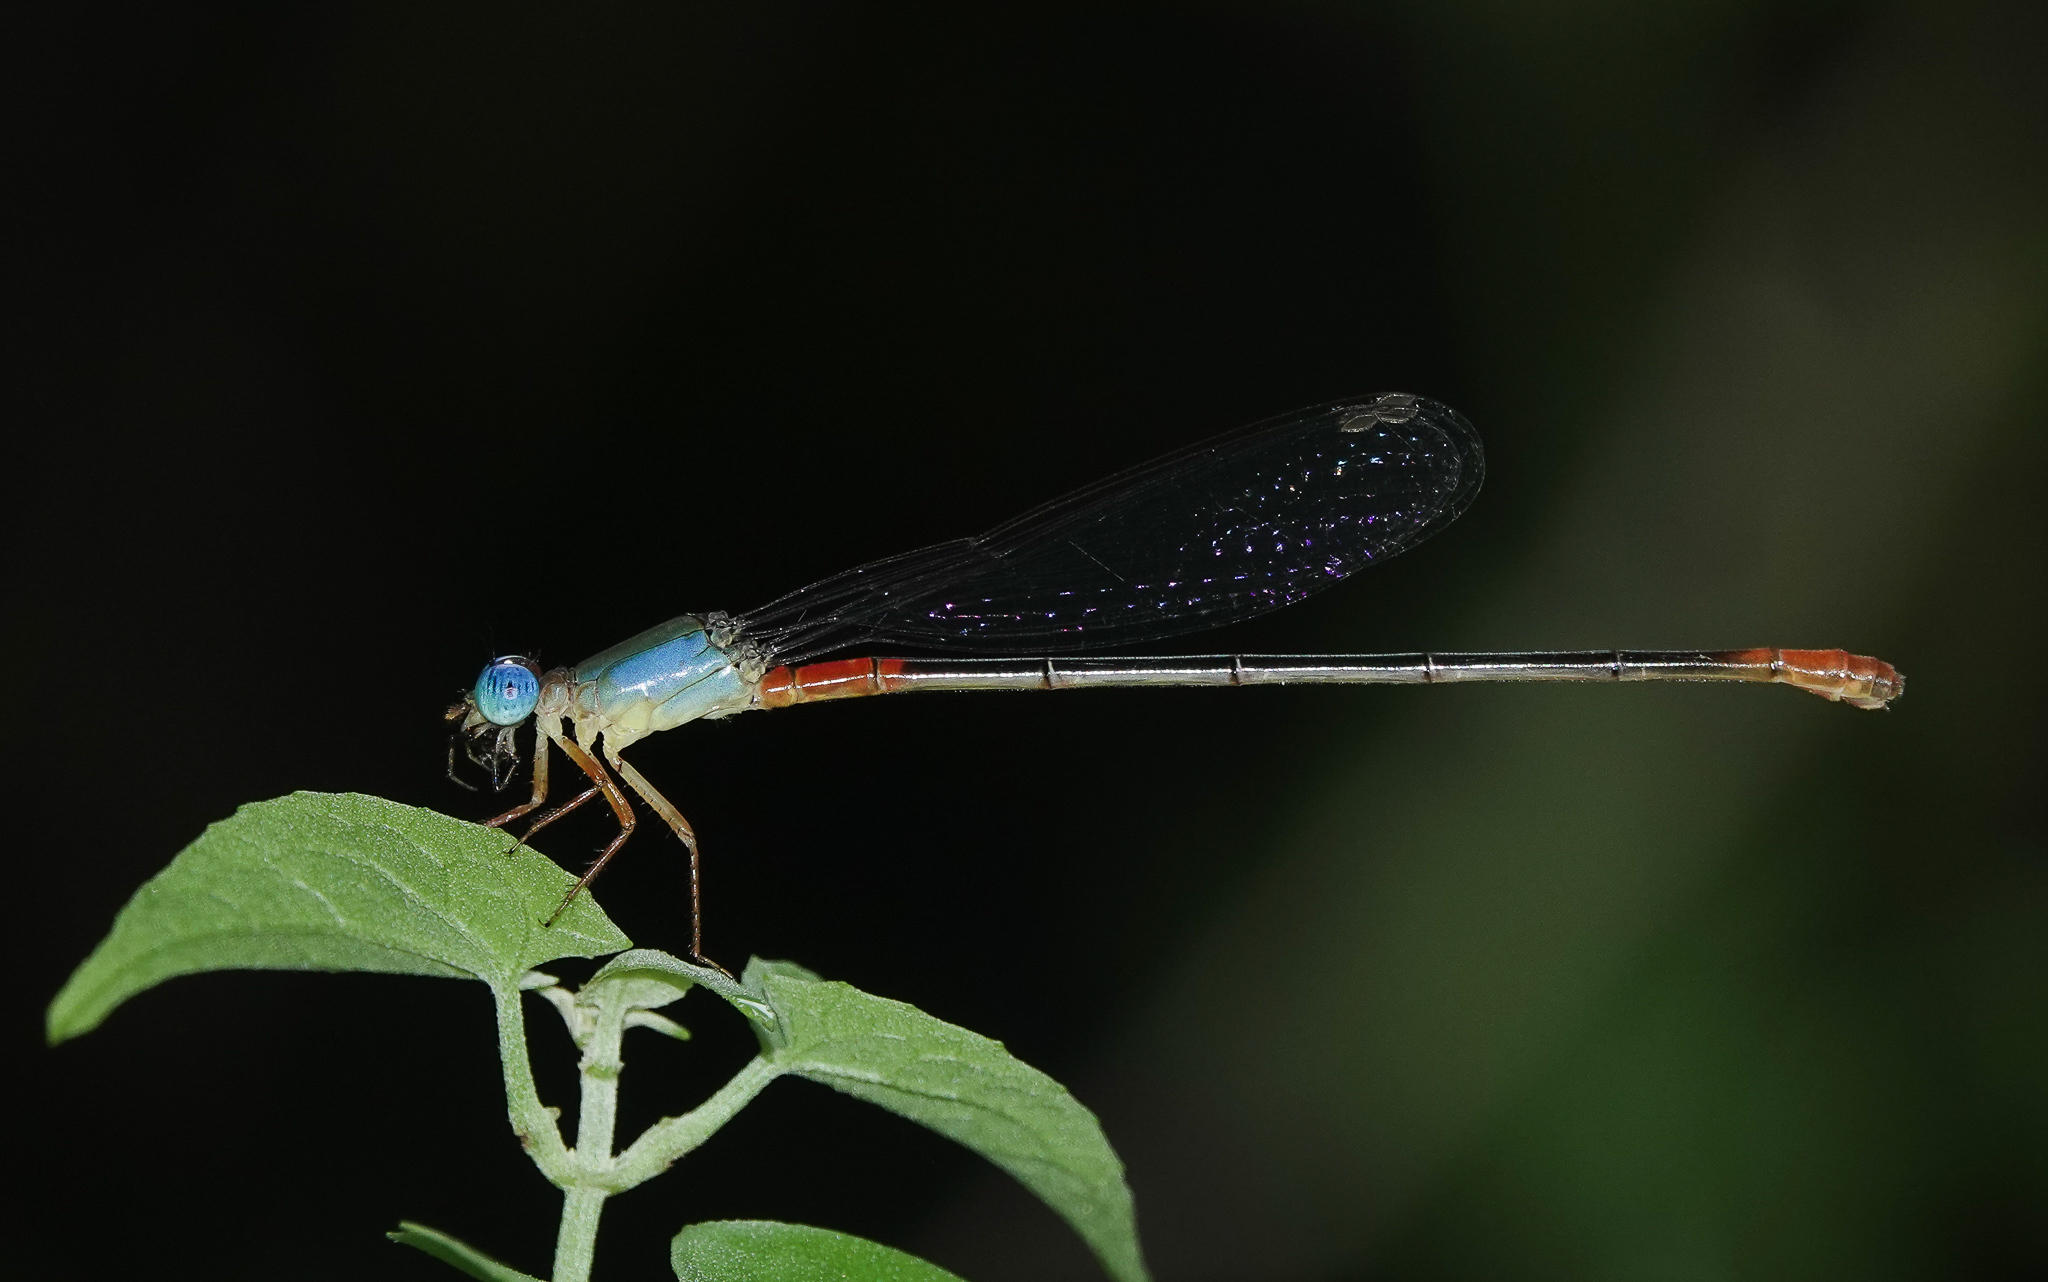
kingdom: Animalia
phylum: Arthropoda
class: Insecta
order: Odonata
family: Coenagrionidae
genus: Ceriagrion
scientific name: Ceriagrion cerinorubellum
